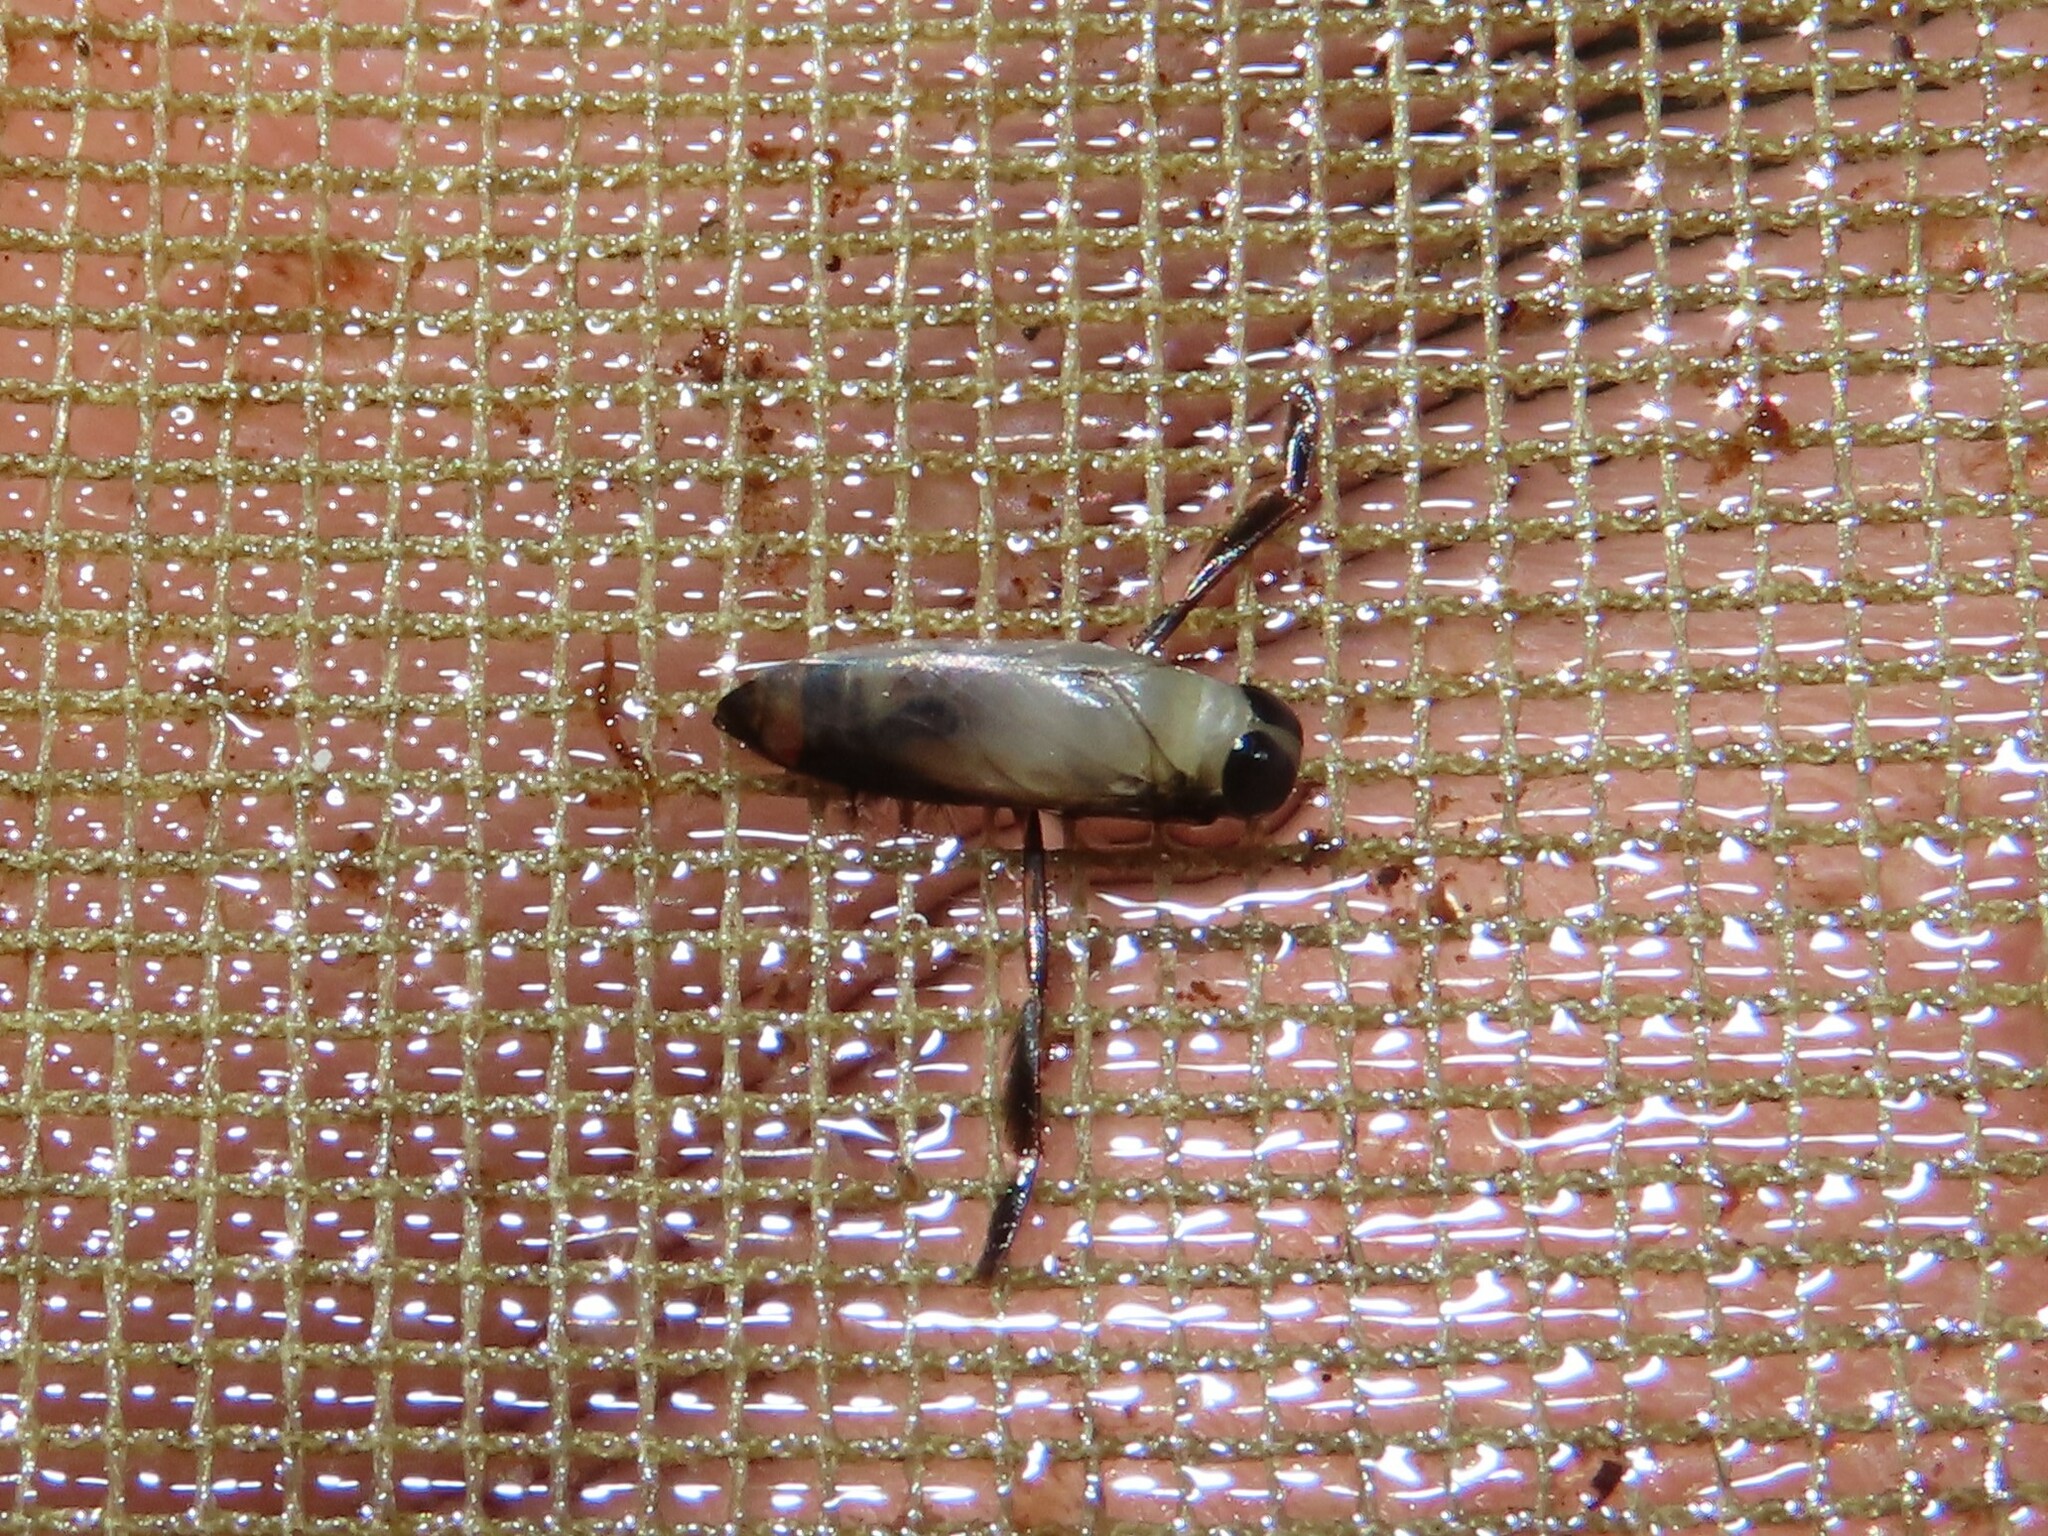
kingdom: Animalia
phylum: Arthropoda
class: Insecta
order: Hemiptera
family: Notonectidae
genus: Buenoa
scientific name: Buenoa
